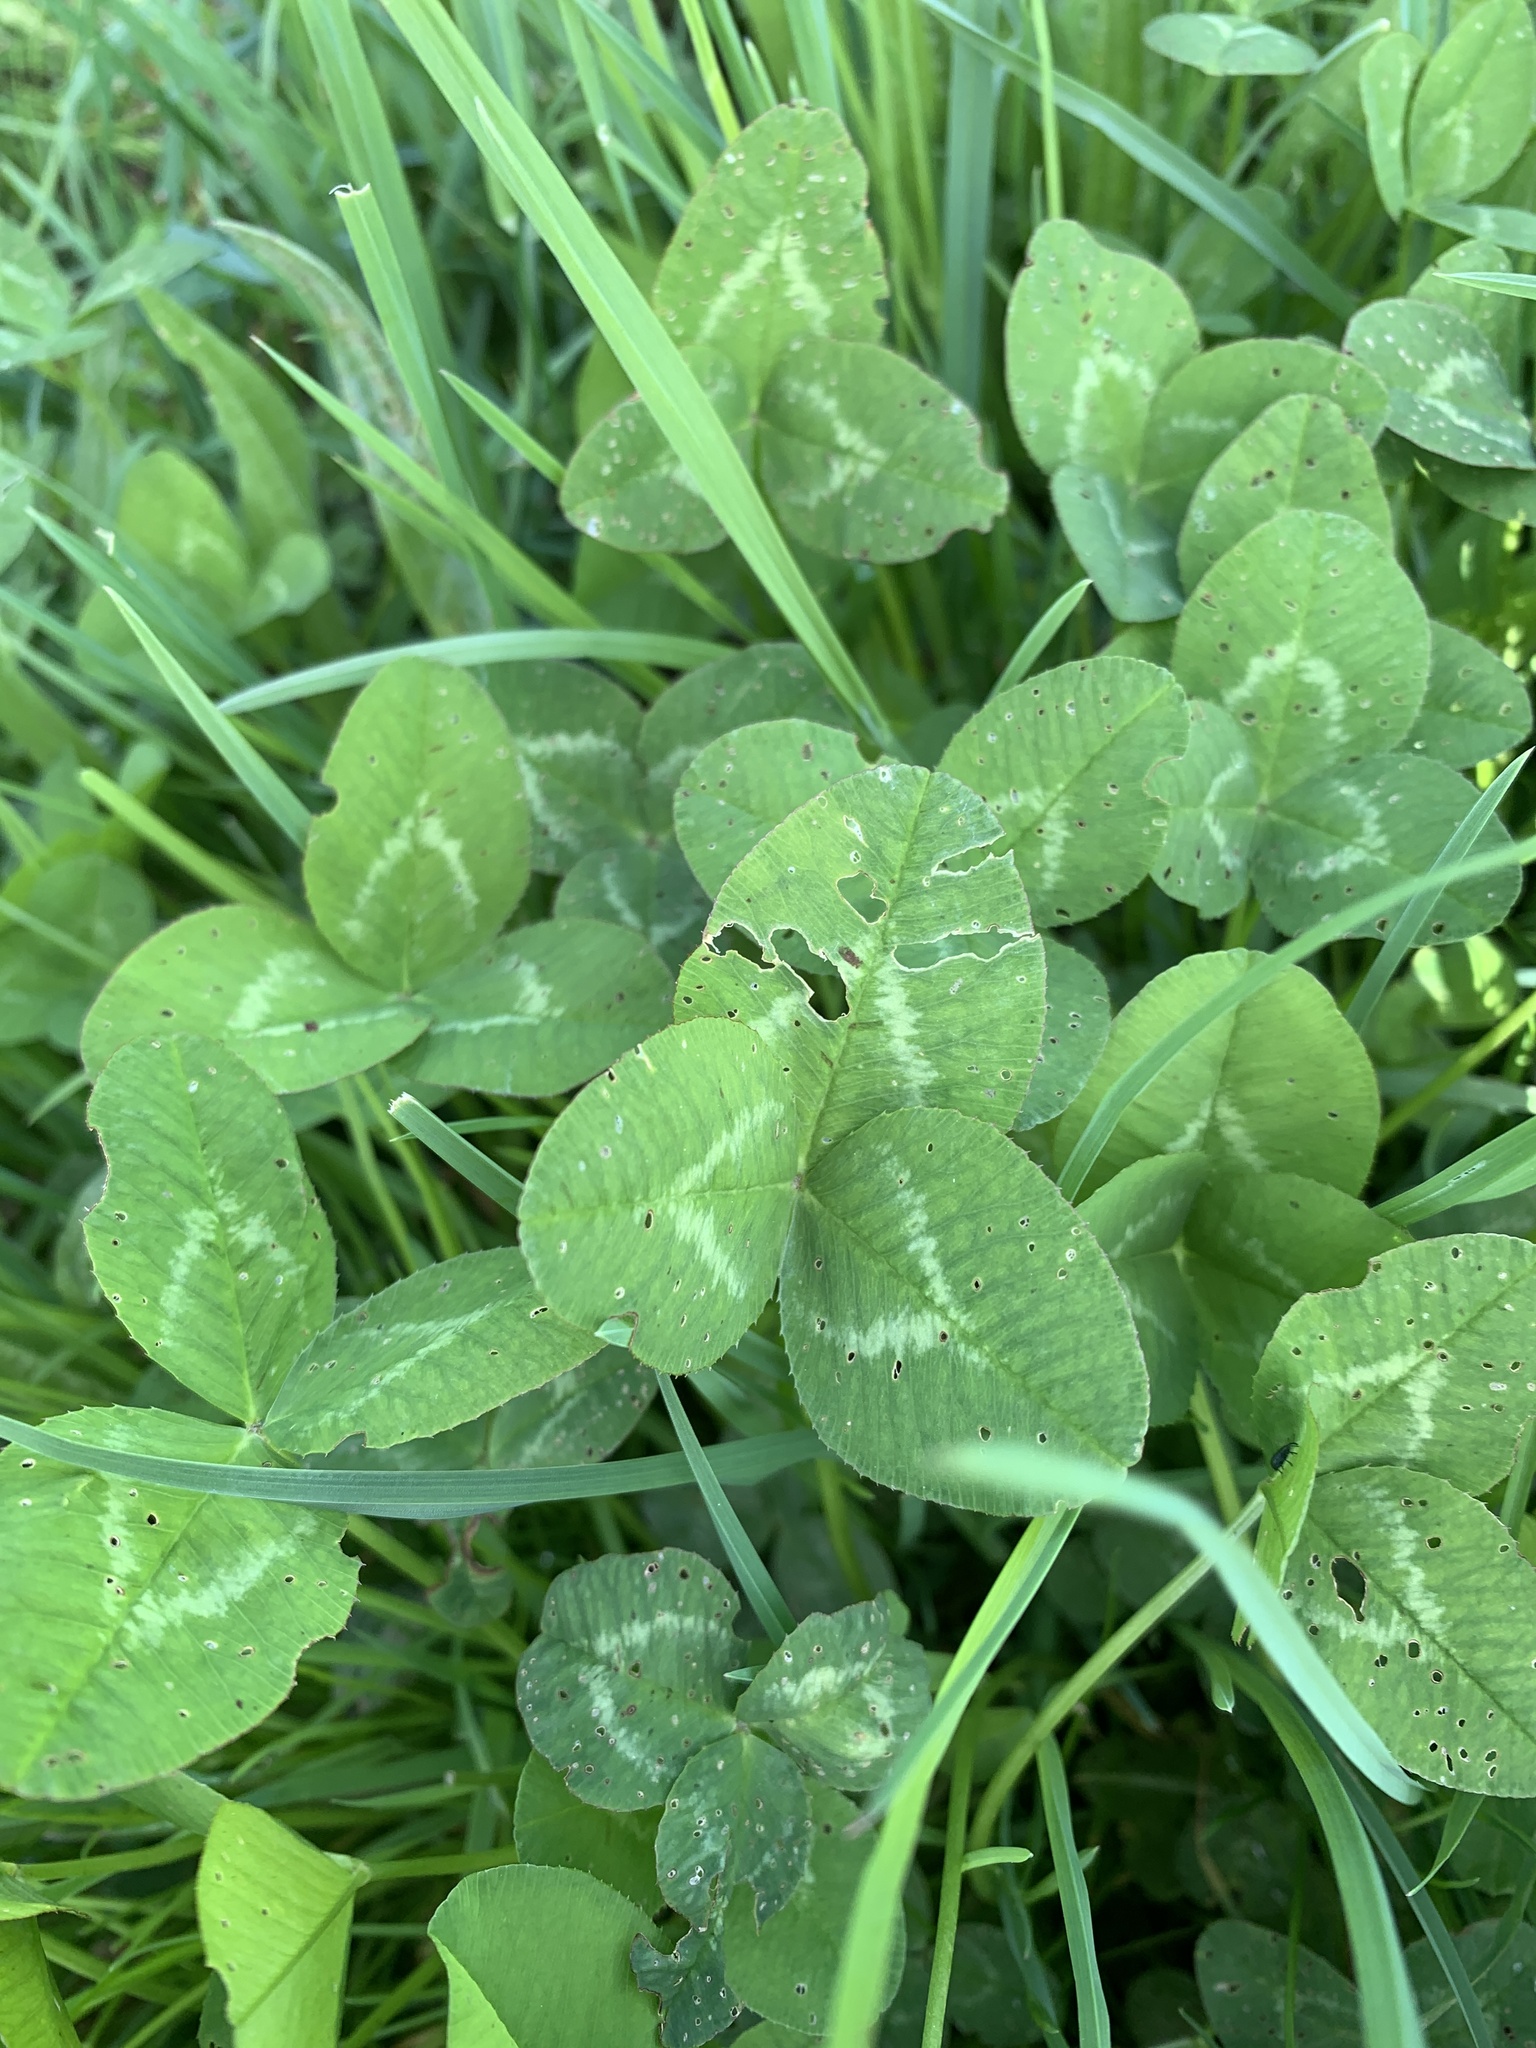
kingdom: Plantae
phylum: Tracheophyta
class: Magnoliopsida
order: Fabales
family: Fabaceae
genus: Trifolium
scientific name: Trifolium repens
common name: White clover
